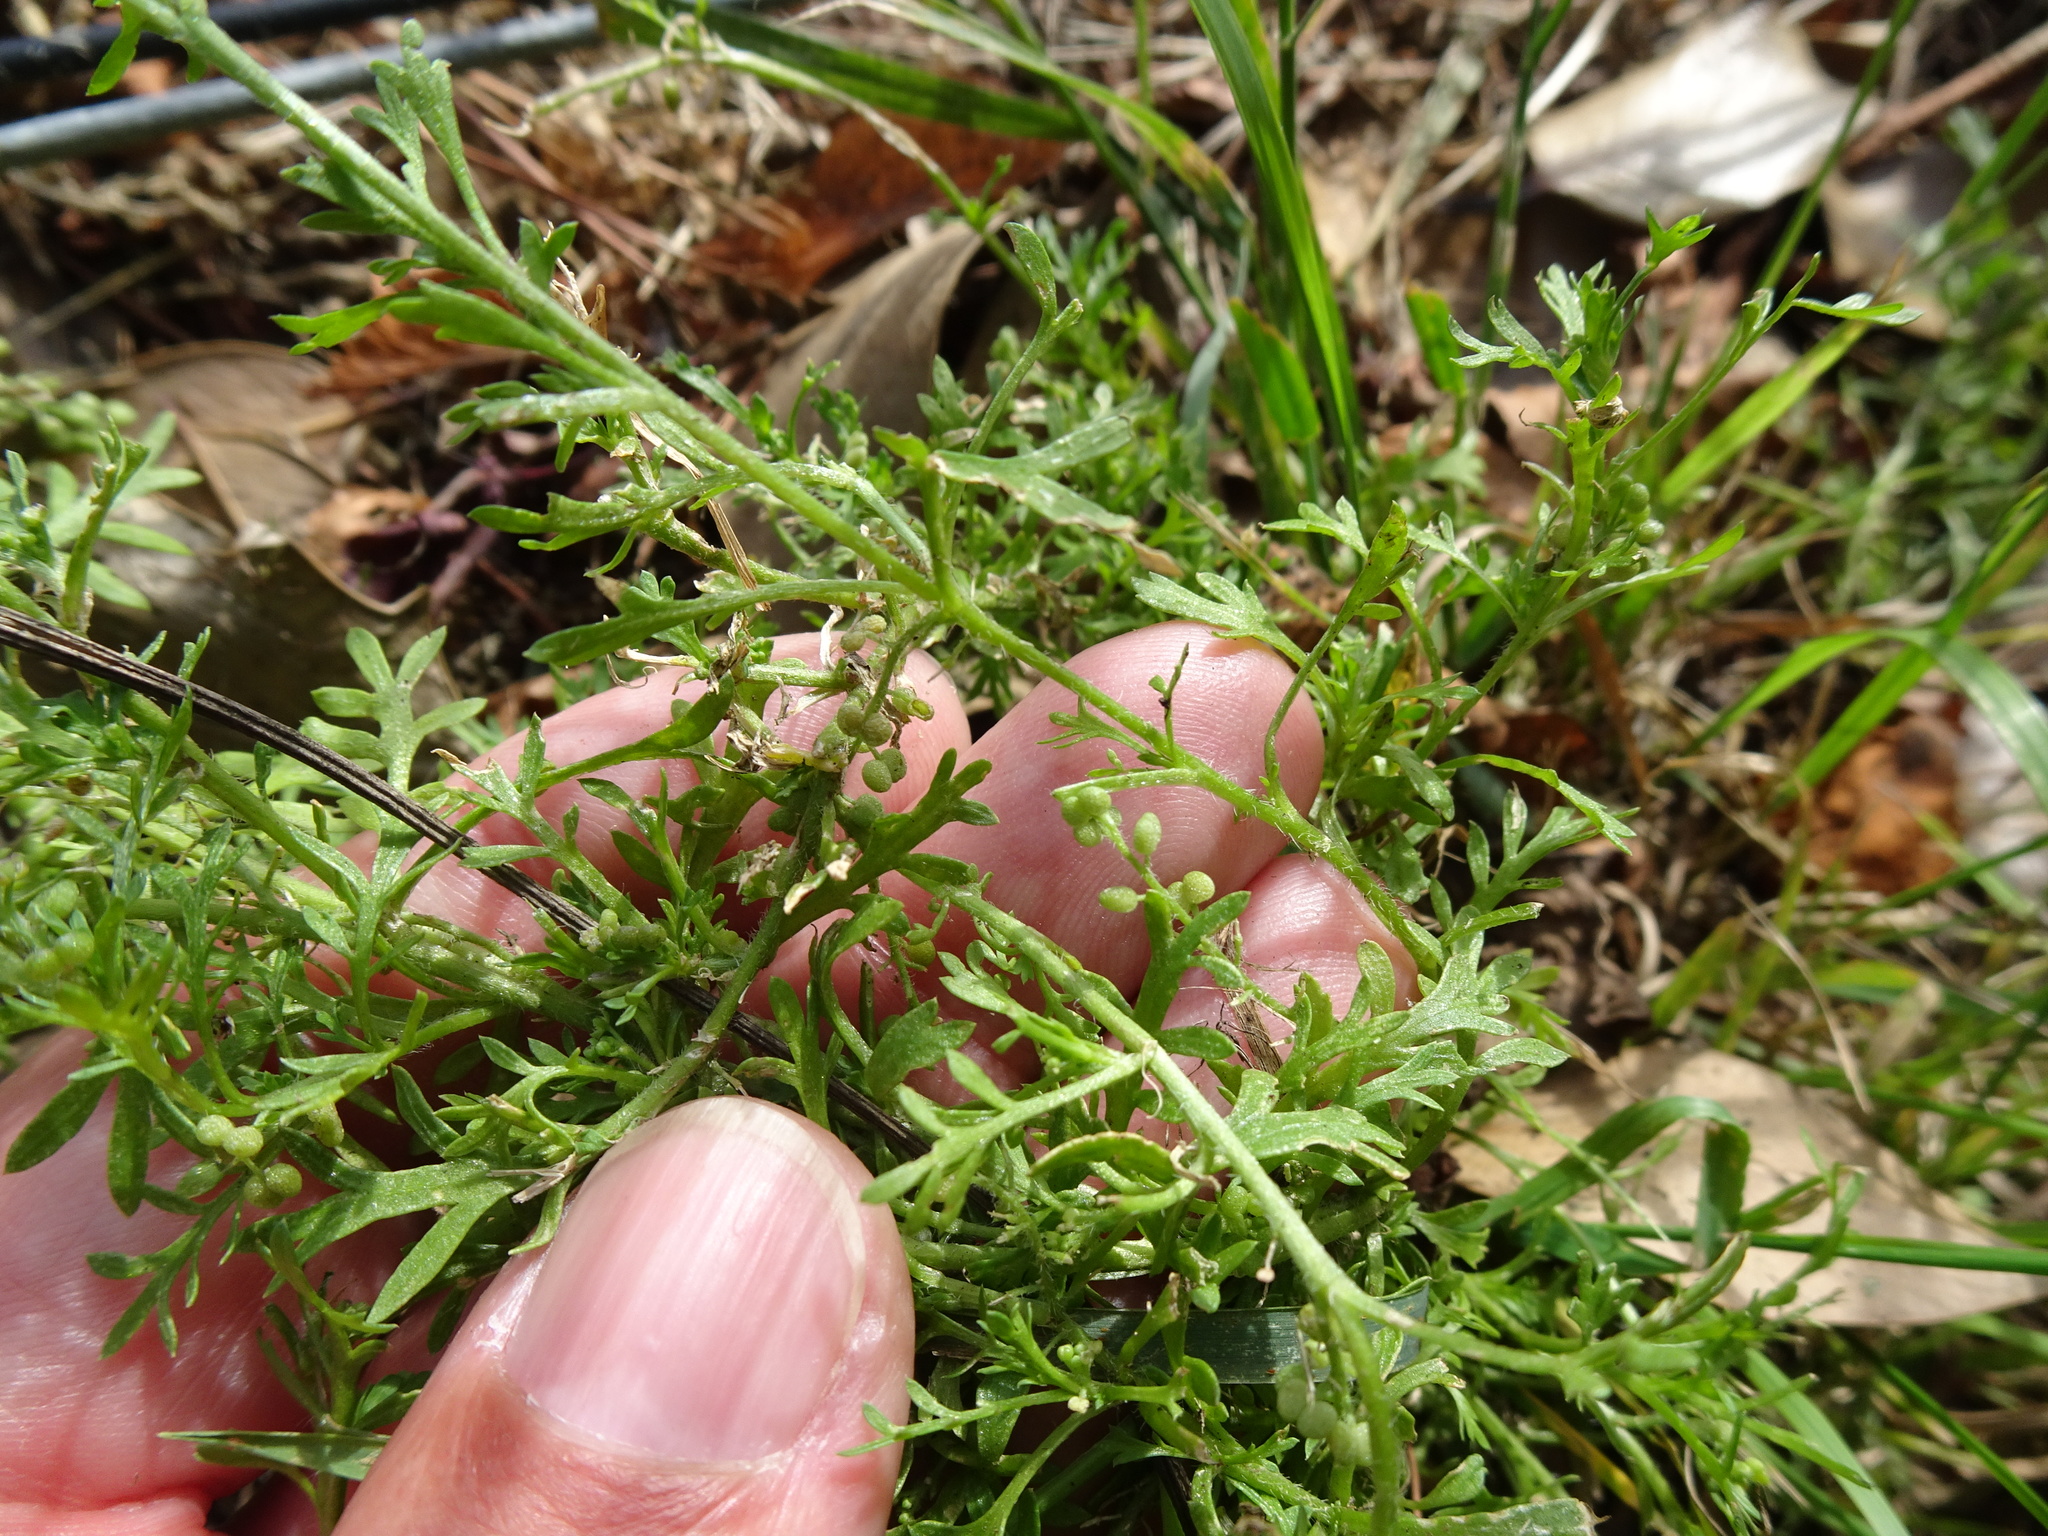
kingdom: Plantae
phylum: Tracheophyta
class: Magnoliopsida
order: Brassicales
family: Brassicaceae
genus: Lepidium
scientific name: Lepidium didymum
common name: Lesser swinecress
